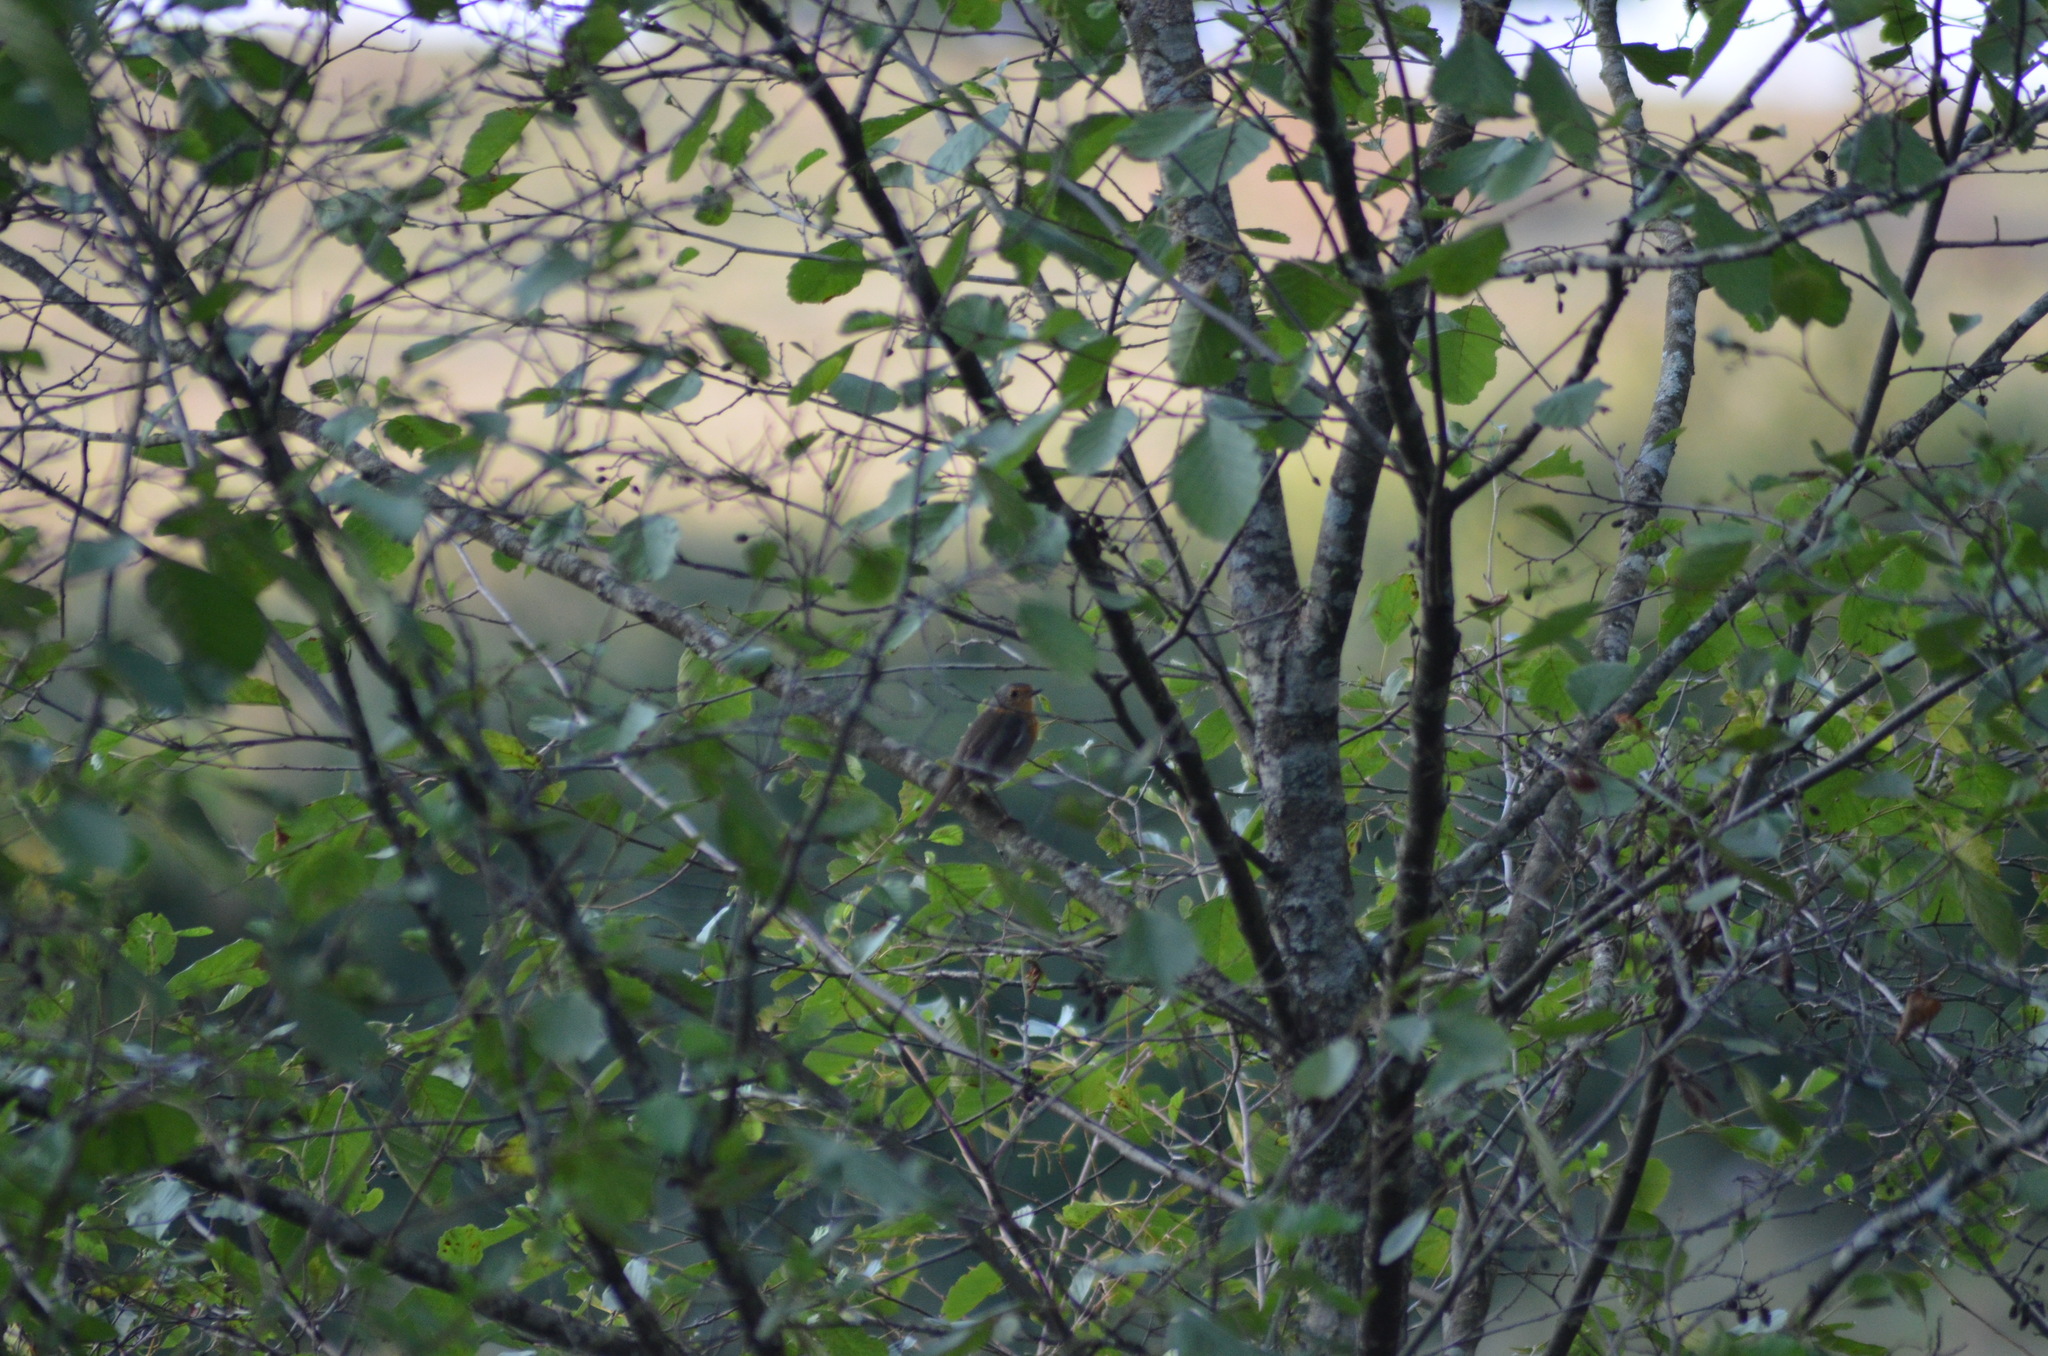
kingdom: Animalia
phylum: Chordata
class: Aves
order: Passeriformes
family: Muscicapidae
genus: Erithacus
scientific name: Erithacus rubecula
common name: European robin
